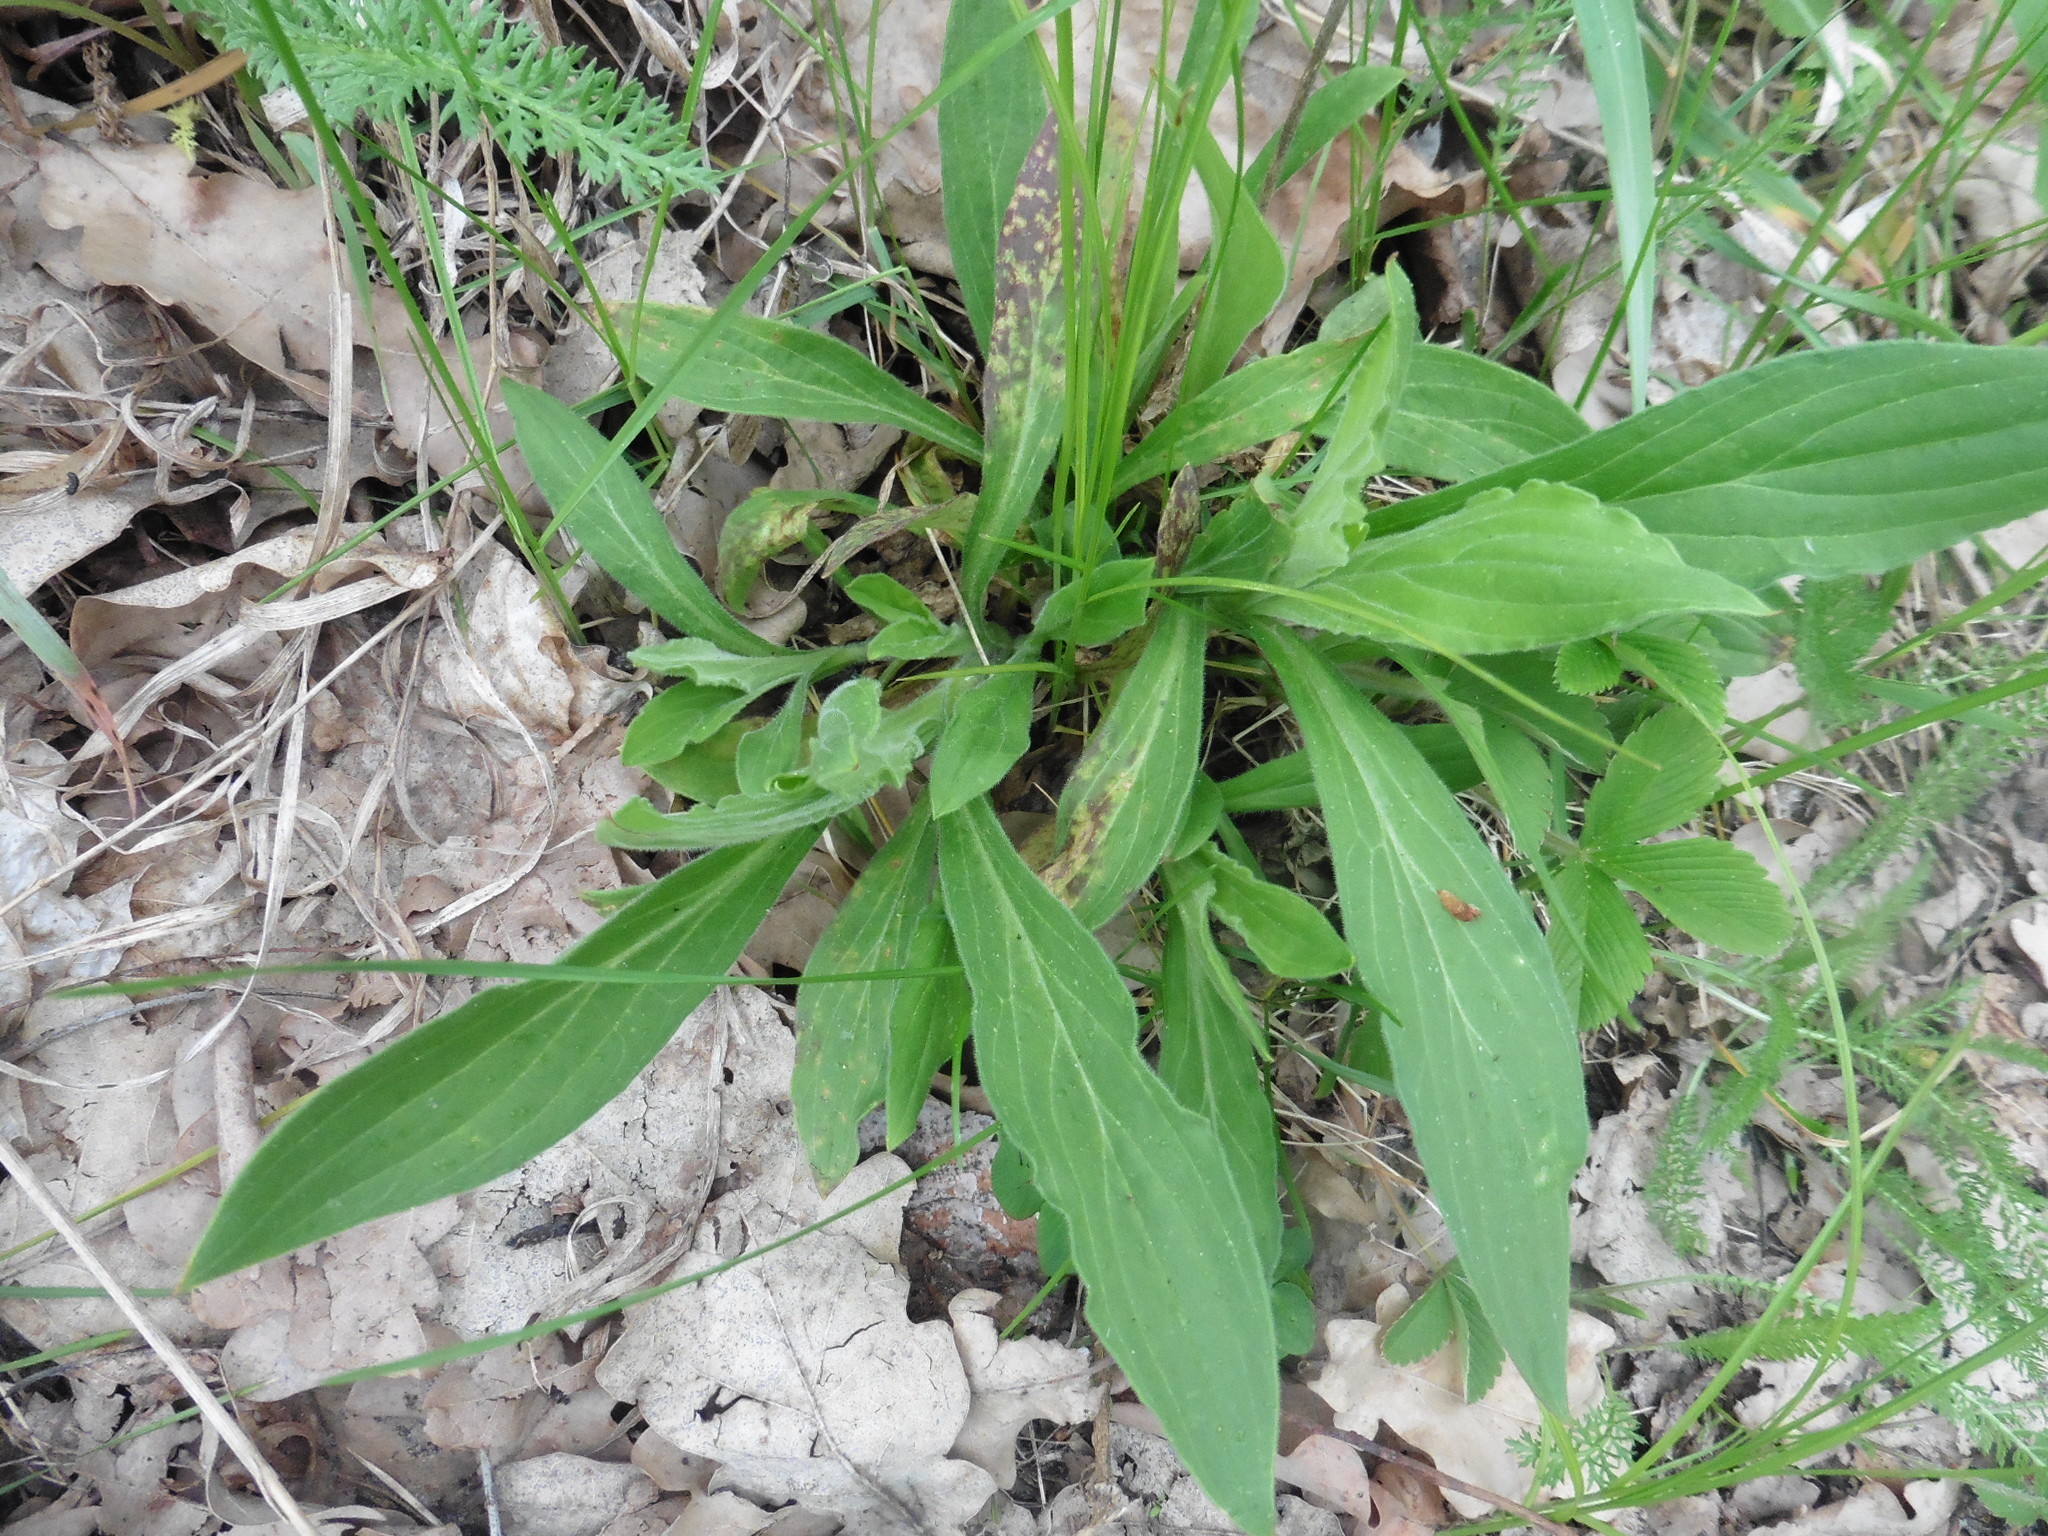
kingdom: Plantae
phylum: Tracheophyta
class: Magnoliopsida
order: Caryophyllales
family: Caryophyllaceae
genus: Silene
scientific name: Silene latifolia
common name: White campion
